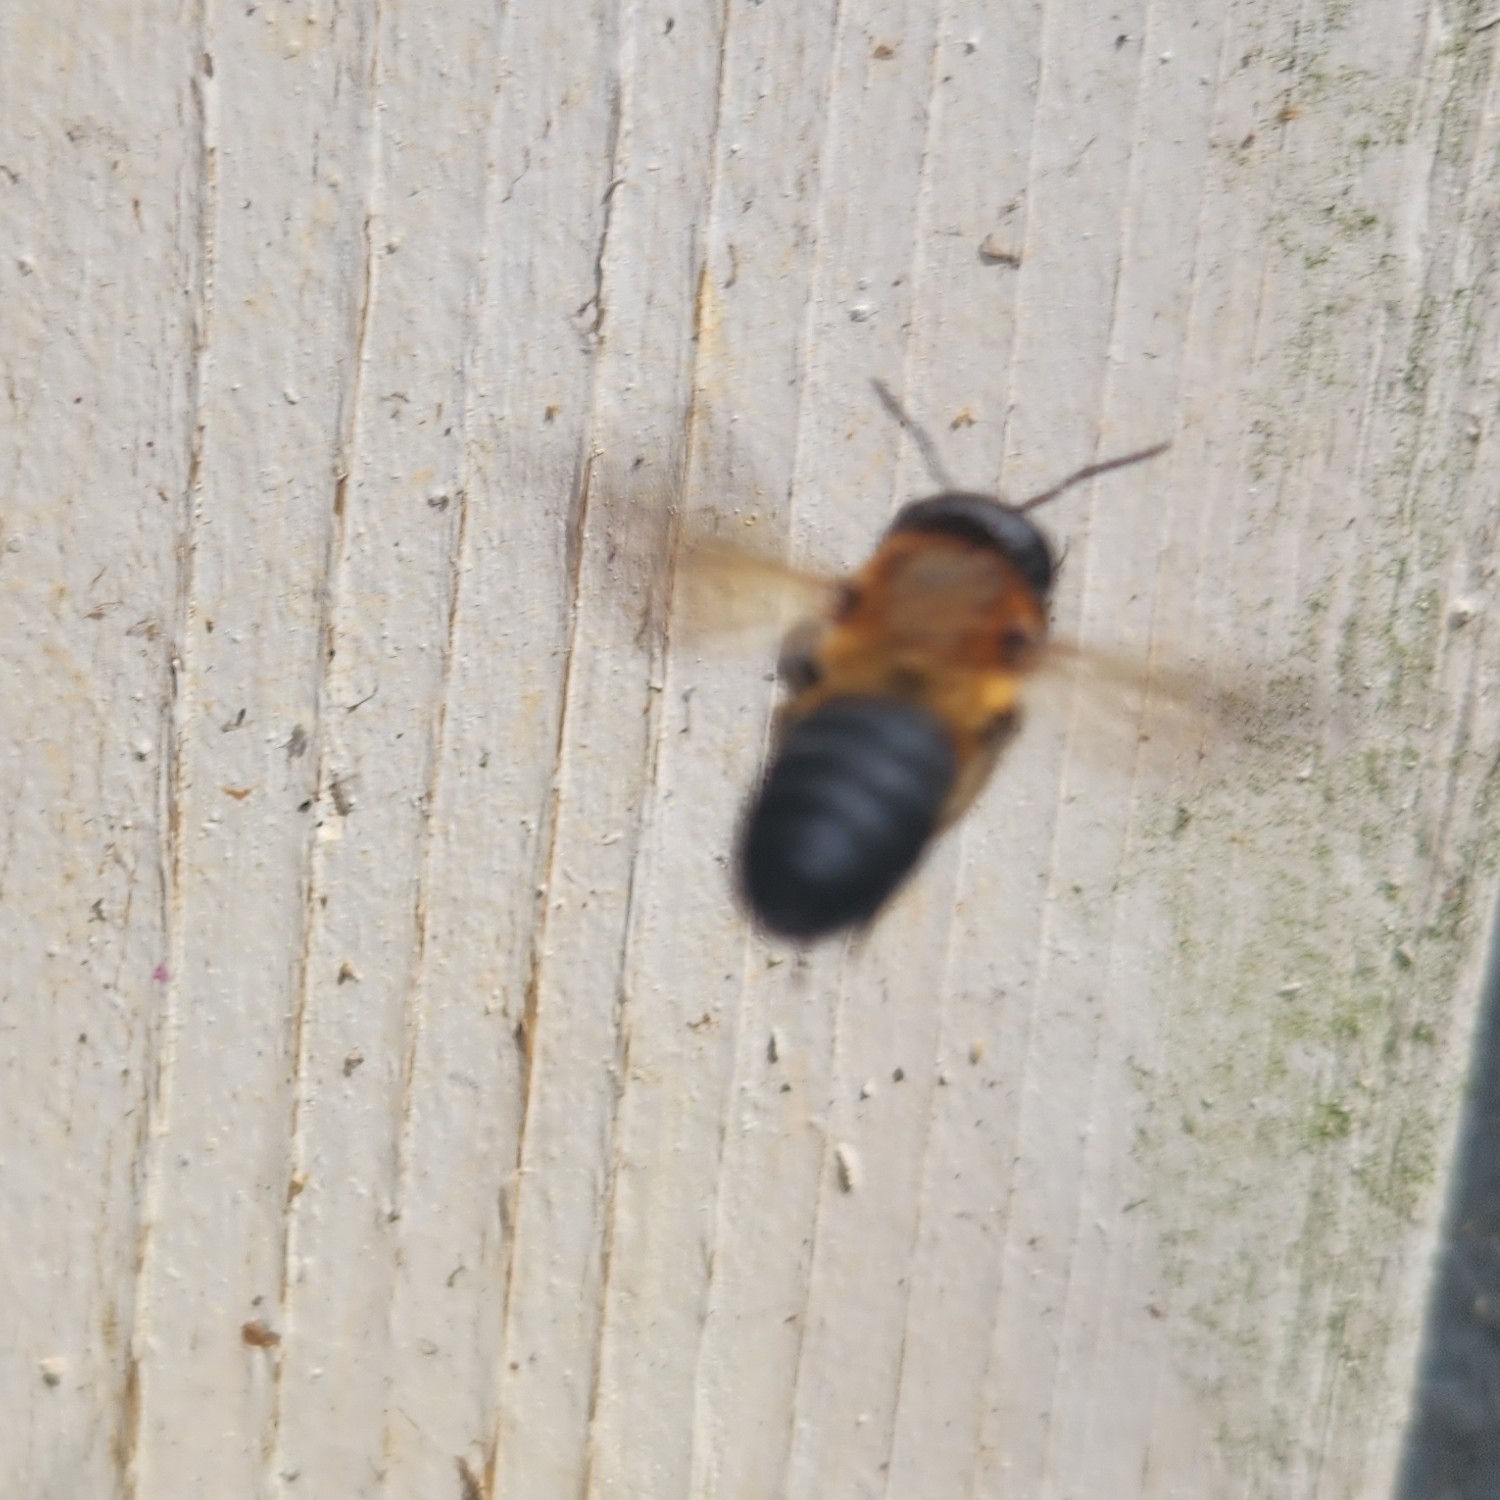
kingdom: Animalia
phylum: Arthropoda
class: Insecta
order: Hymenoptera
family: Megachilidae
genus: Megachile
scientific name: Megachile sculpturalis
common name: Sculptured resin bee
